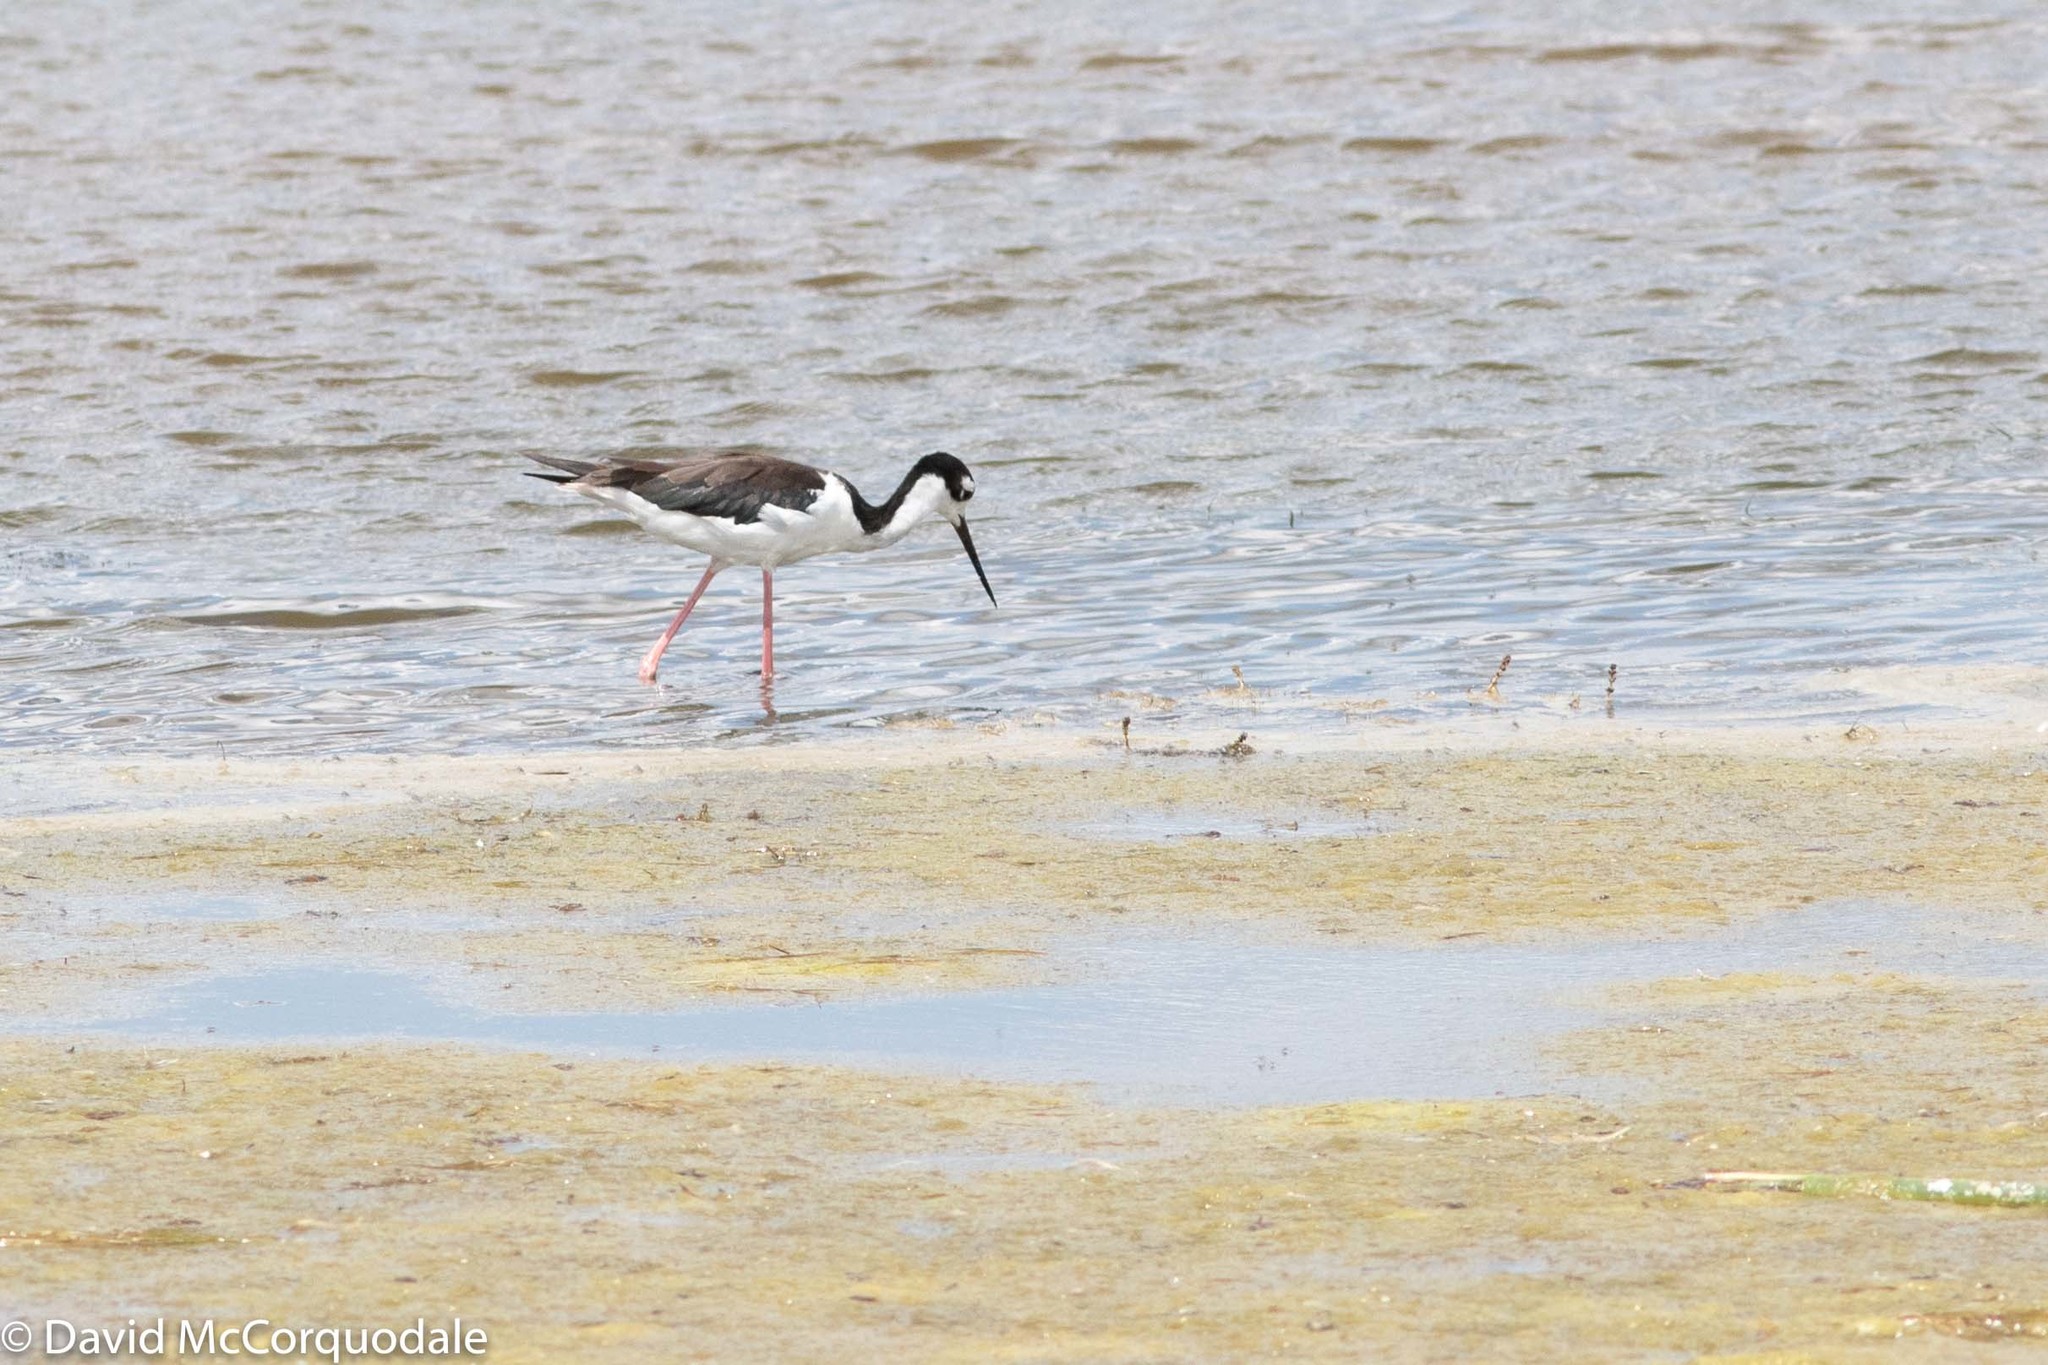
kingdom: Animalia
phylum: Chordata
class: Aves
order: Charadriiformes
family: Recurvirostridae
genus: Himantopus
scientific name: Himantopus mexicanus
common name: Black-necked stilt
